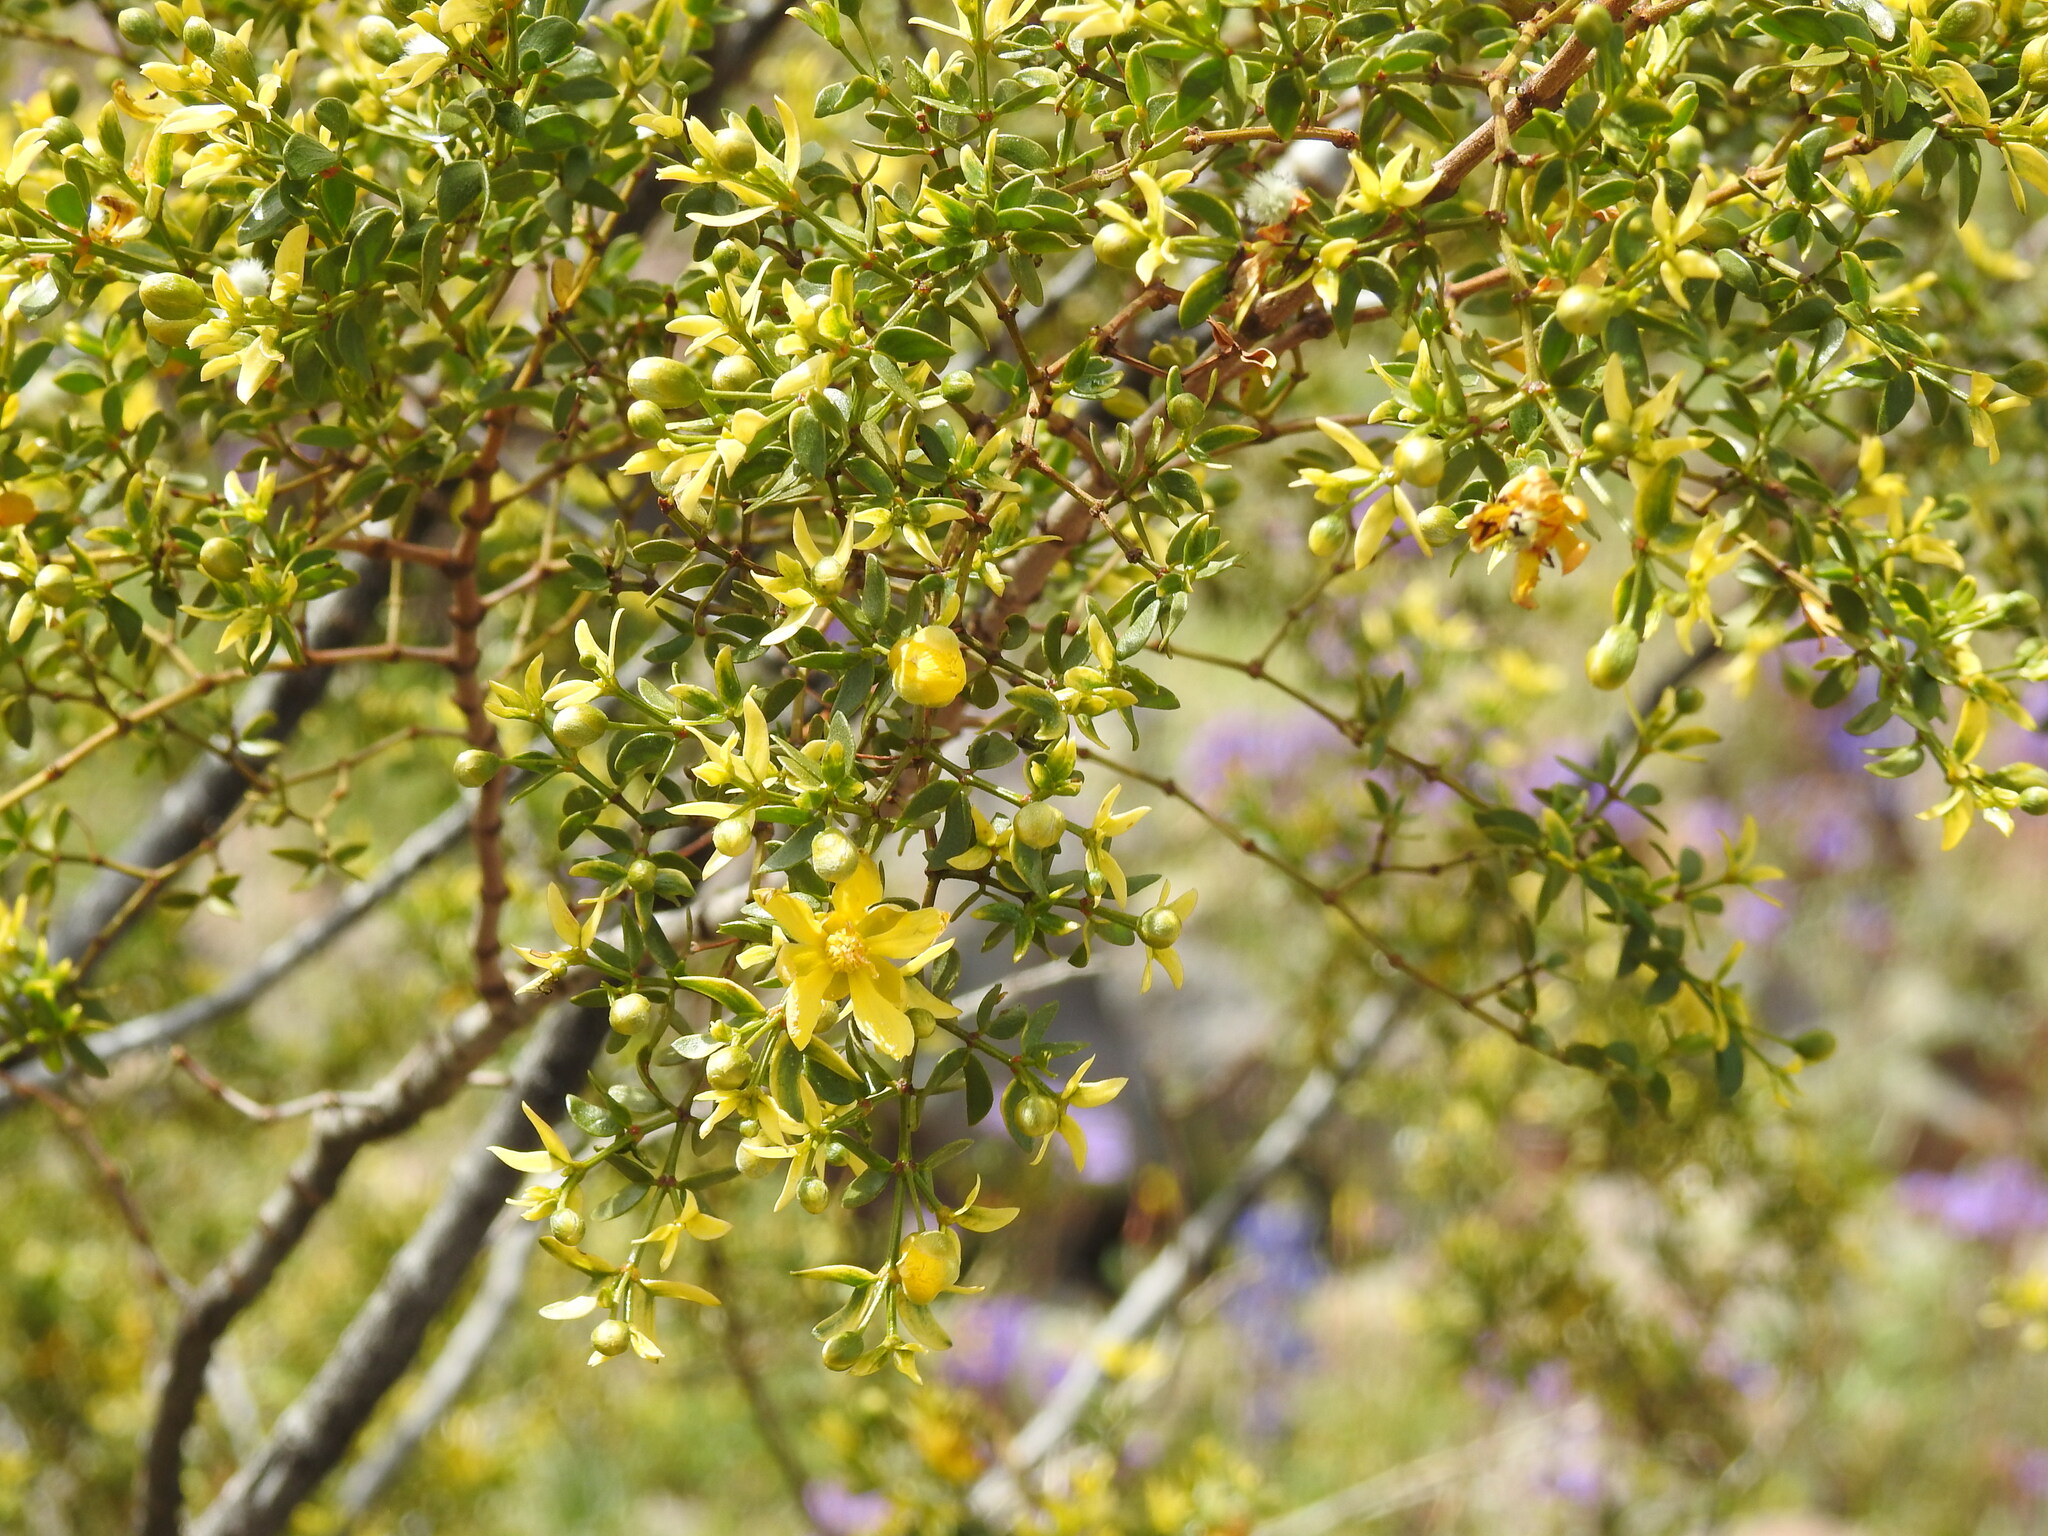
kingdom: Plantae
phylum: Tracheophyta
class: Magnoliopsida
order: Zygophyllales
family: Zygophyllaceae
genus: Larrea
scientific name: Larrea tridentata
